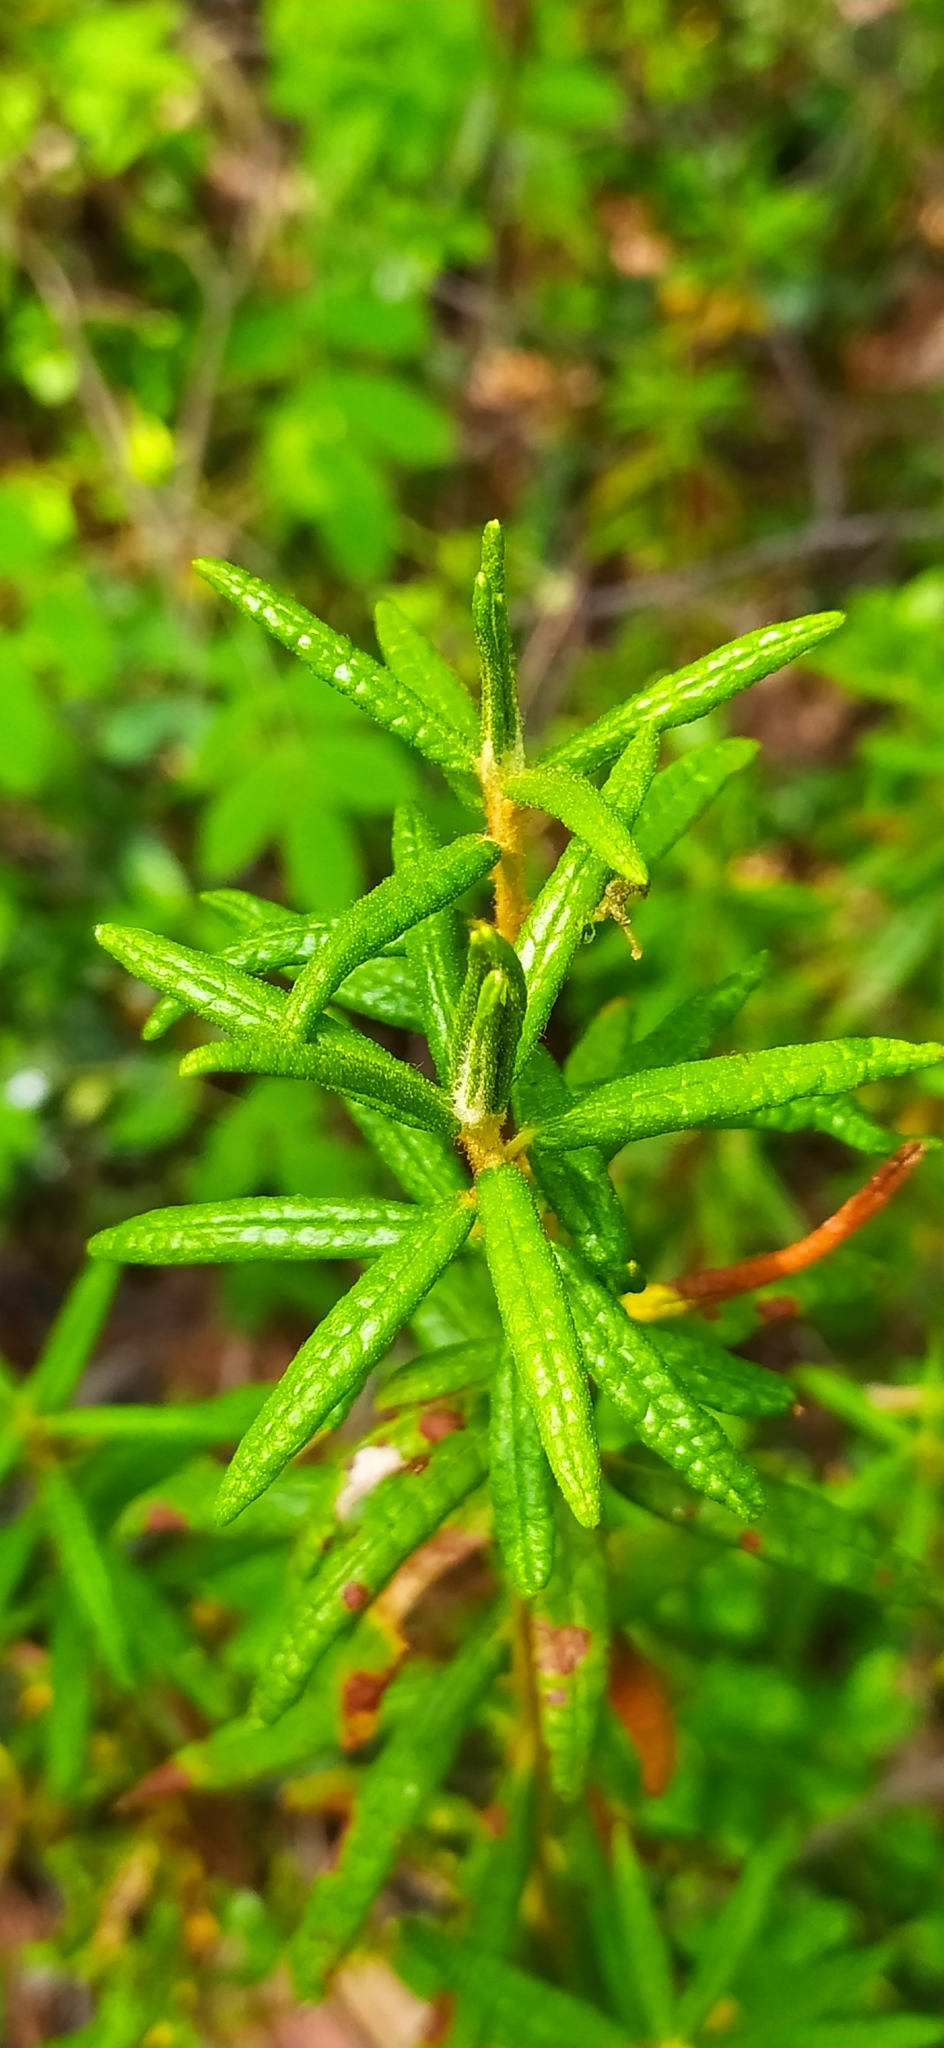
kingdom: Plantae
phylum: Tracheophyta
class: Magnoliopsida
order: Ericales
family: Ericaceae
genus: Rhododendron
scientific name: Rhododendron tomentosum
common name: Marsh labrador tea
